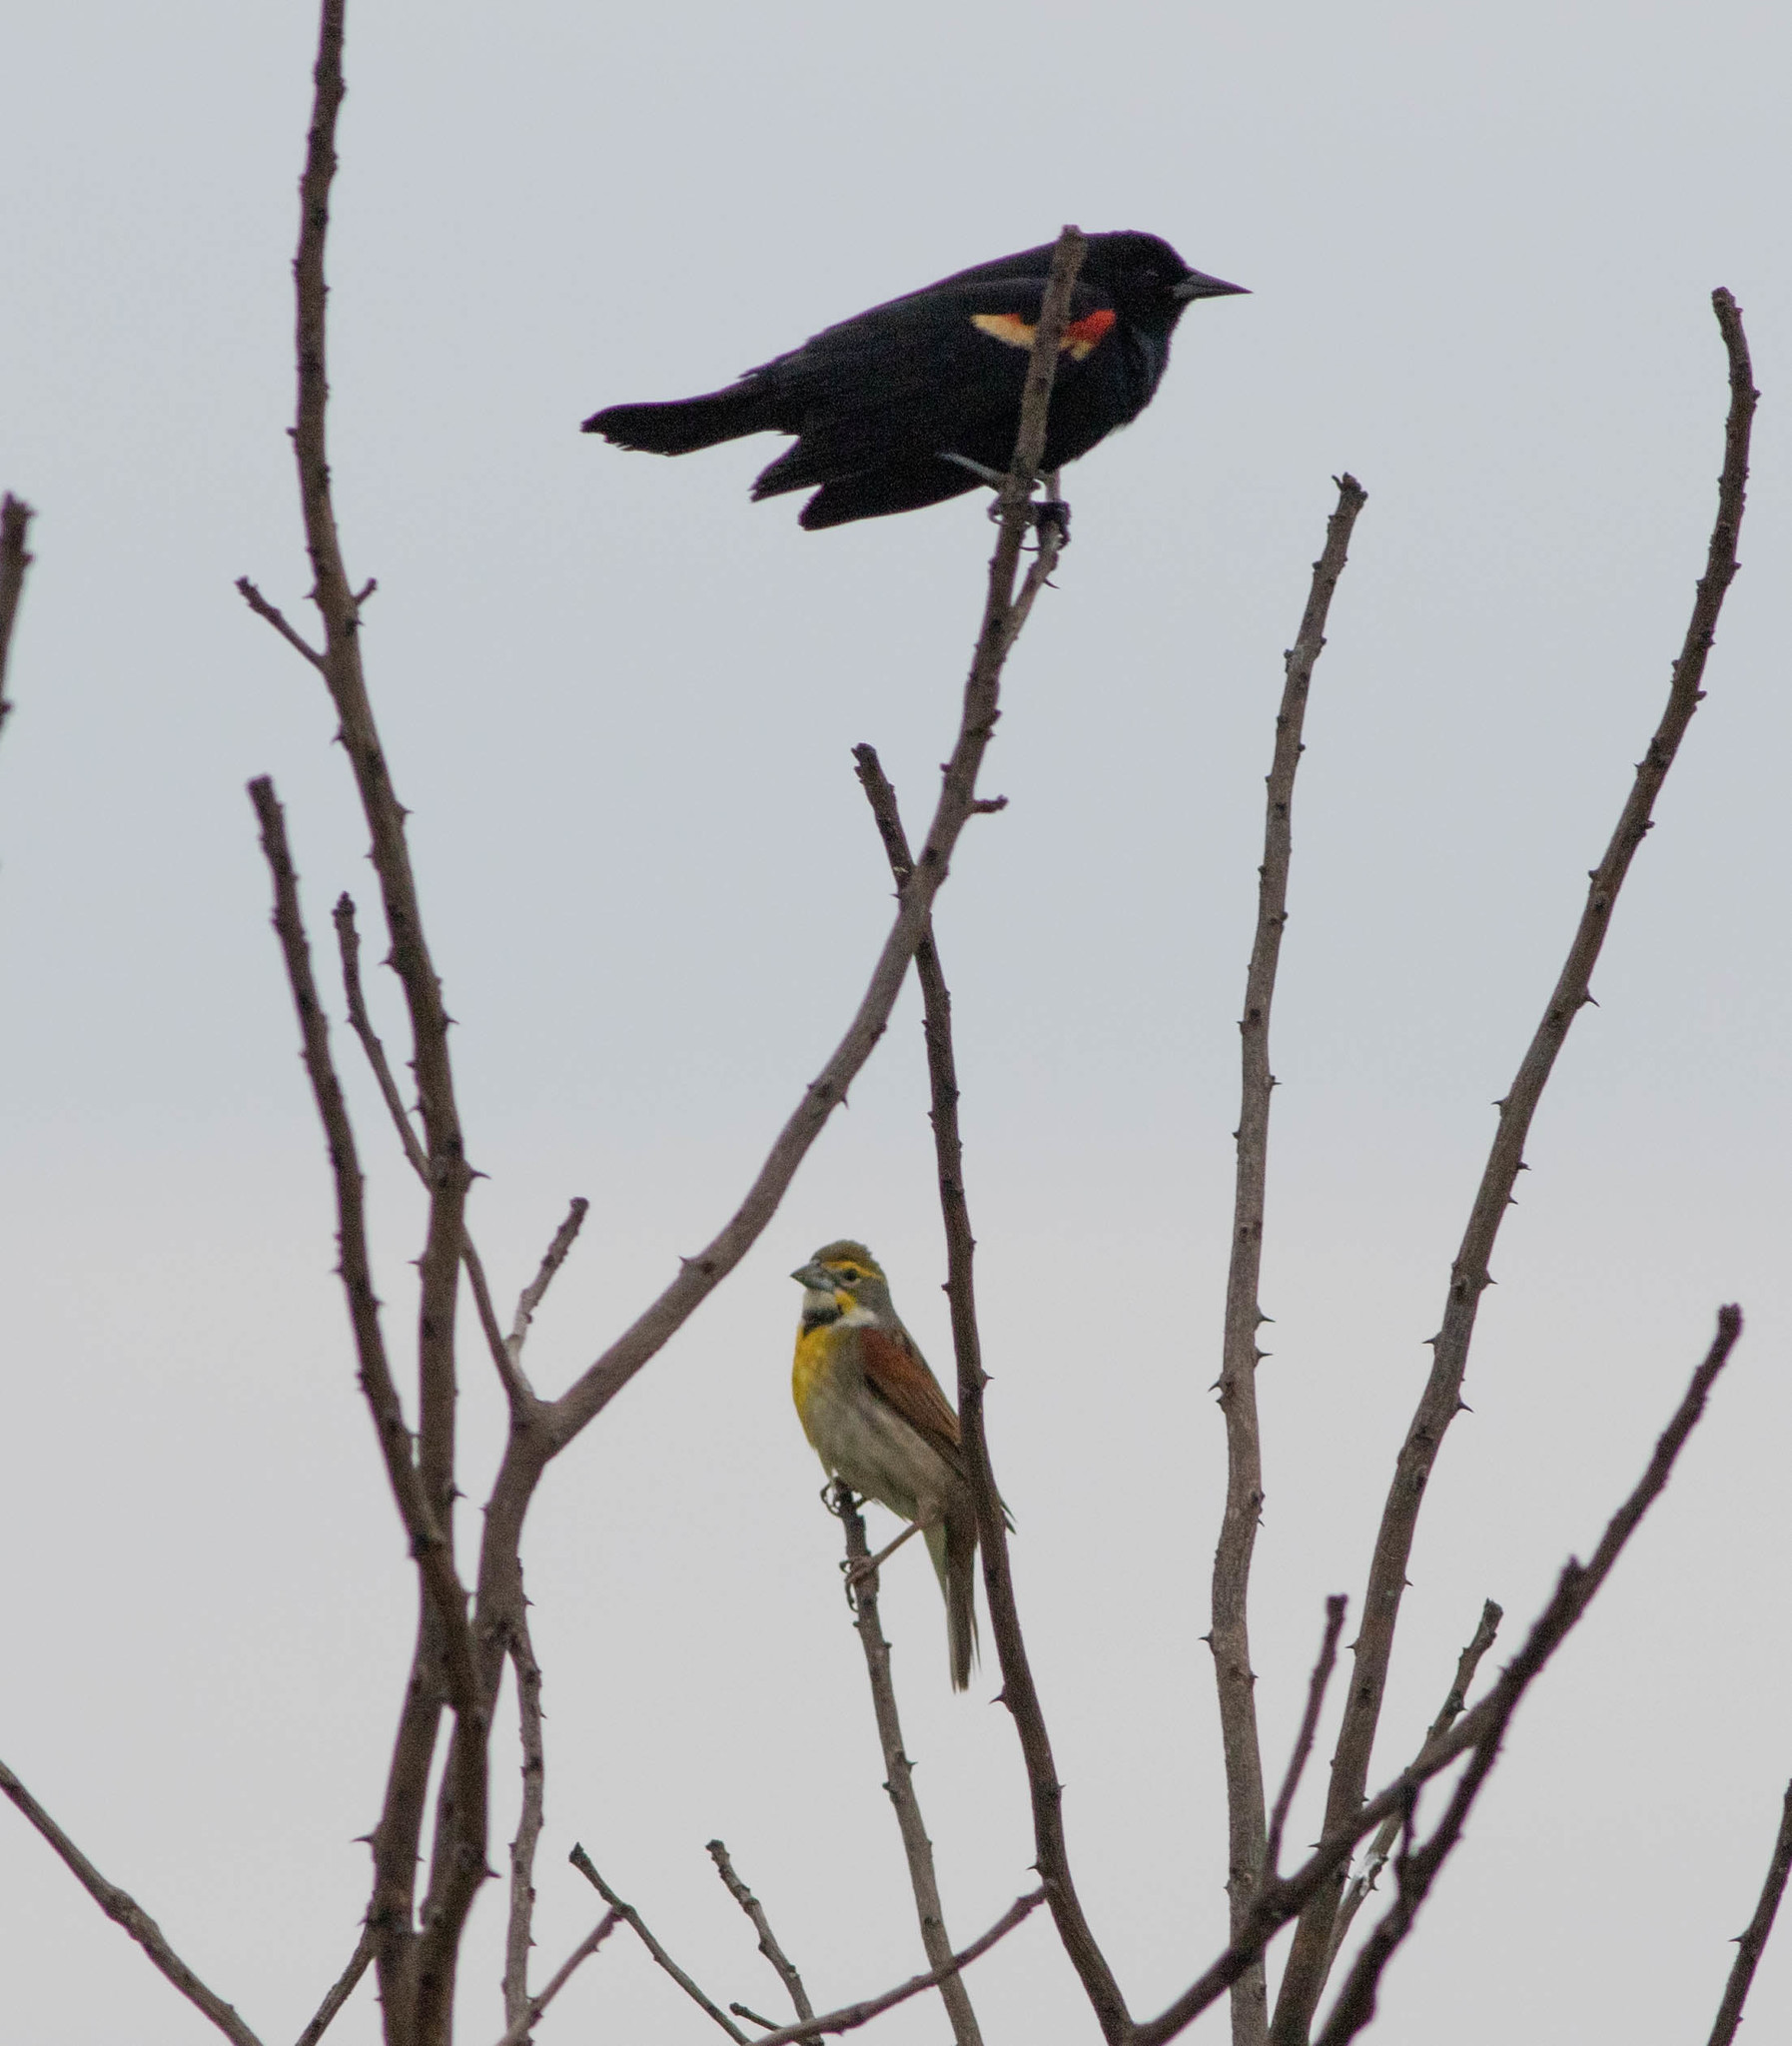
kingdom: Animalia
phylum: Chordata
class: Aves
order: Passeriformes
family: Icteridae
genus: Agelaius
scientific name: Agelaius phoeniceus
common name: Red-winged blackbird
